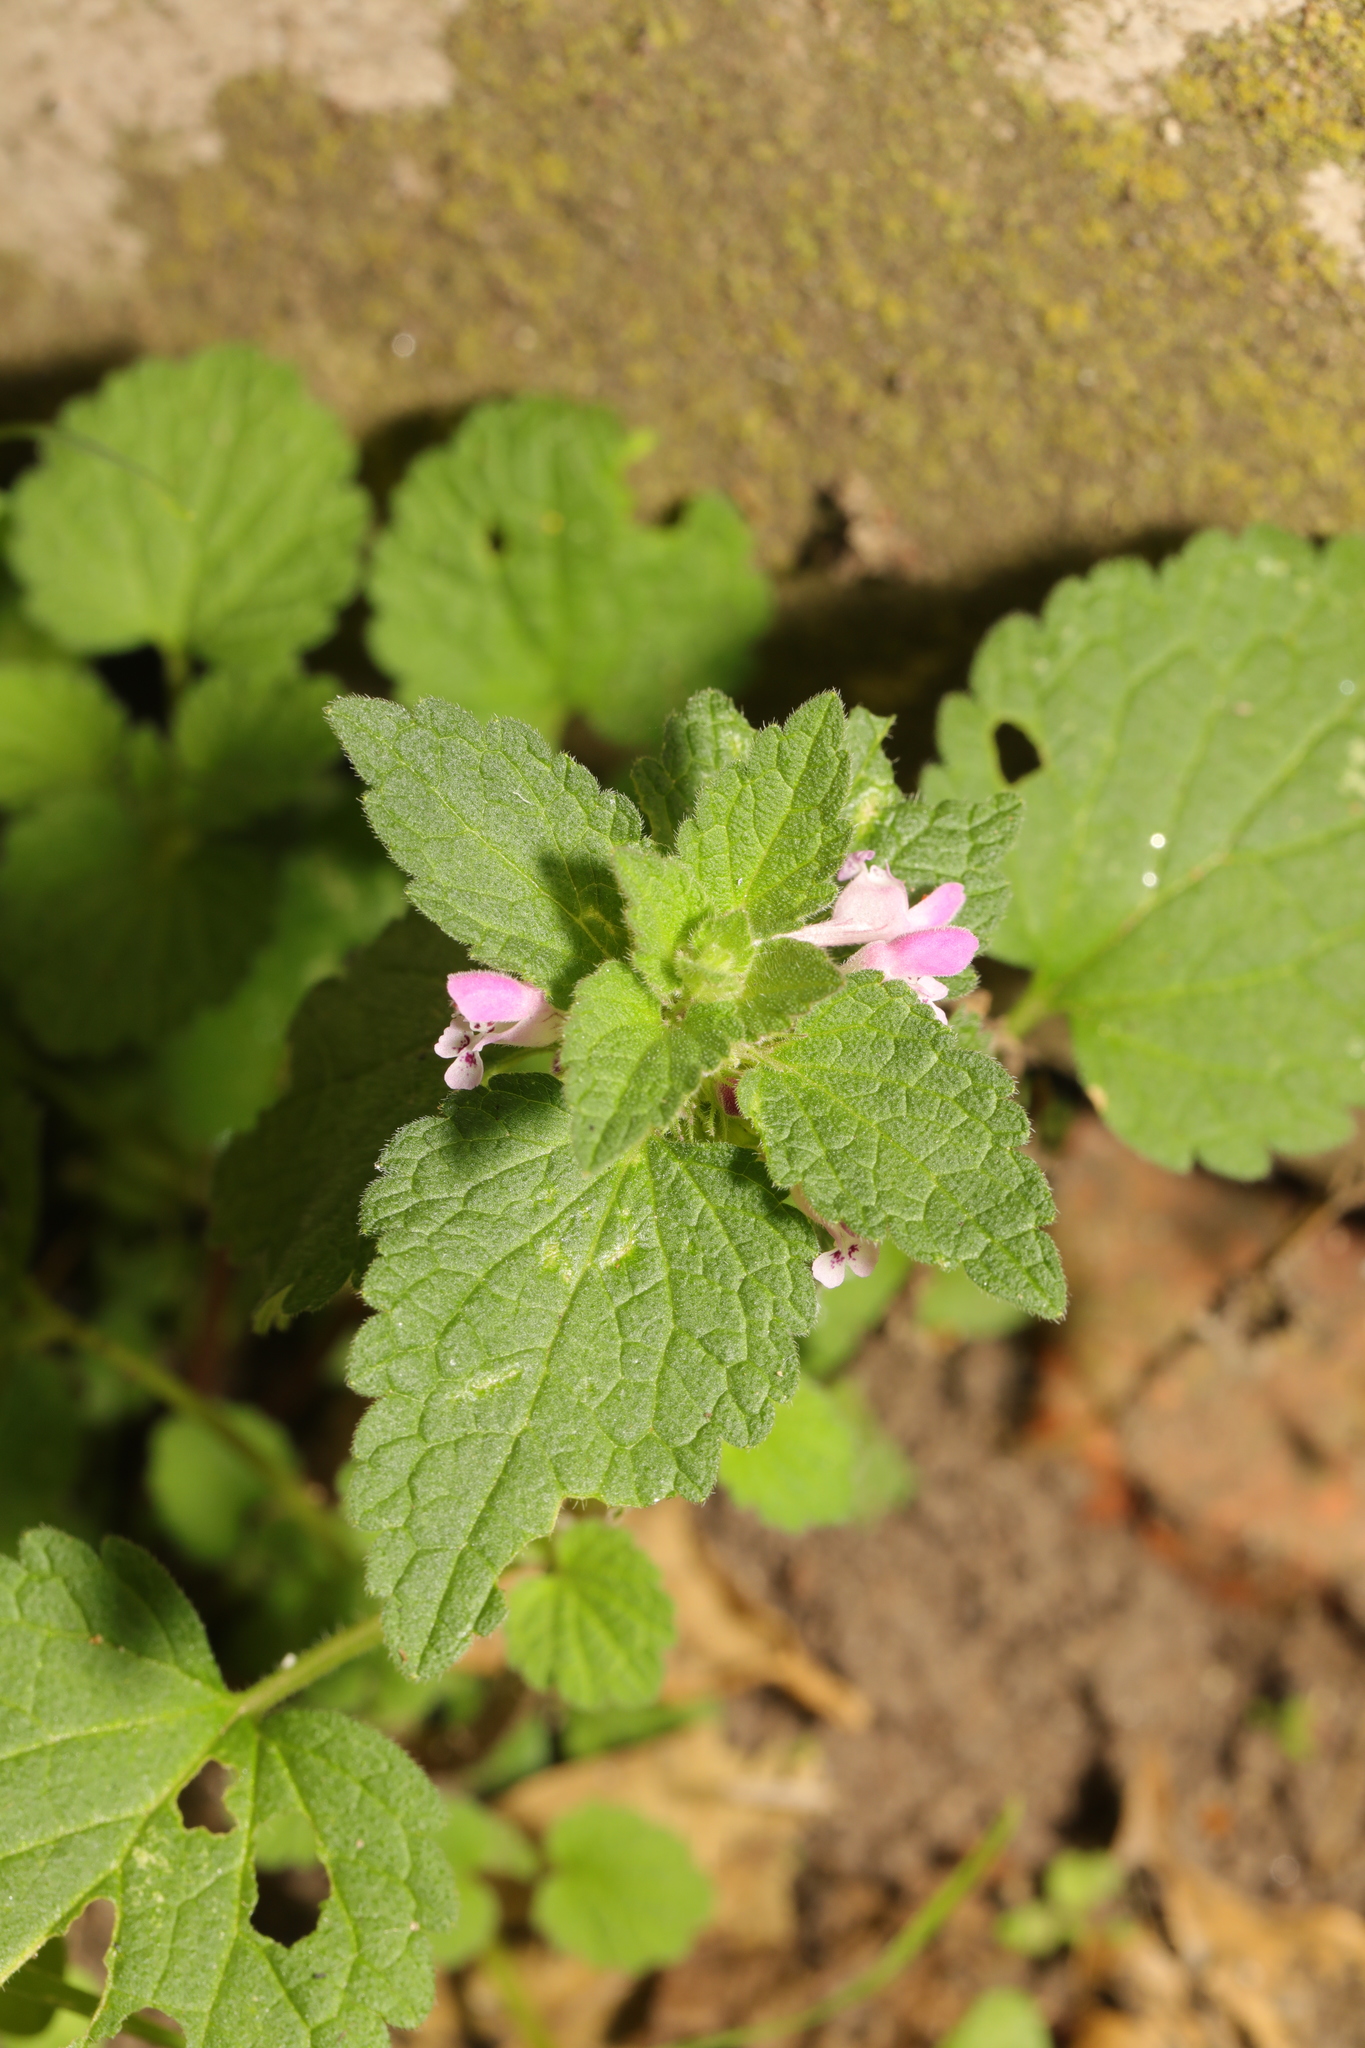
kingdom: Plantae
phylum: Tracheophyta
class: Magnoliopsida
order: Lamiales
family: Lamiaceae
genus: Lamium
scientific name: Lamium purpureum
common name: Red dead-nettle
